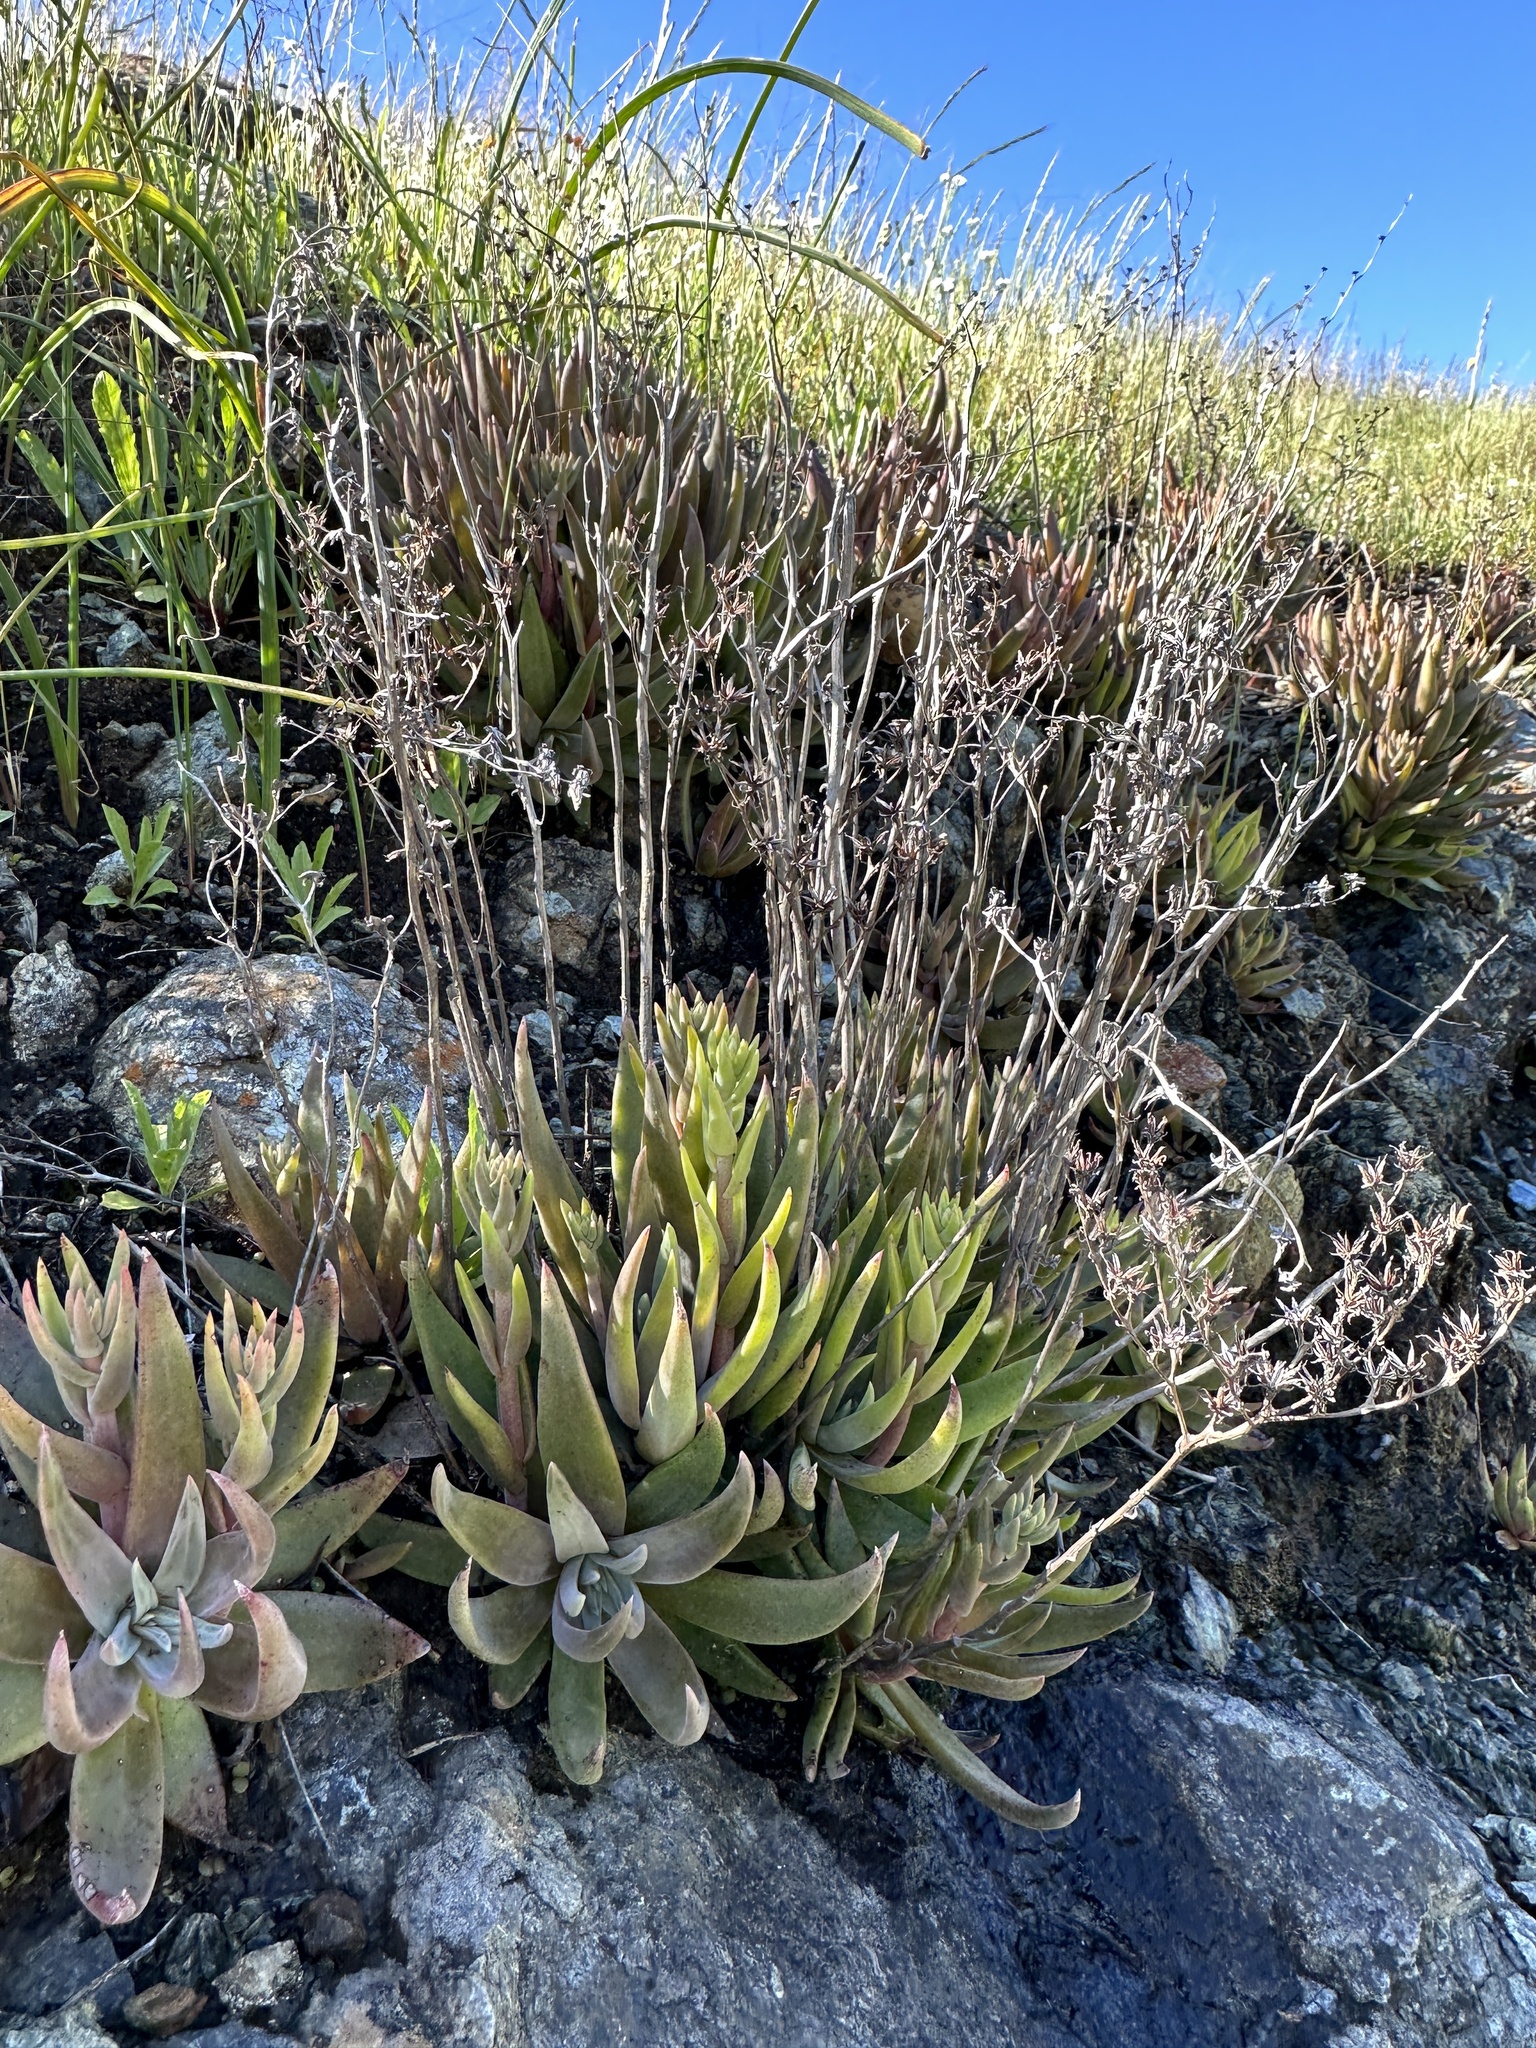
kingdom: Plantae
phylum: Tracheophyta
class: Magnoliopsida
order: Saxifragales
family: Crassulaceae
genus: Dudleya
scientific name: Dudleya abramsii
